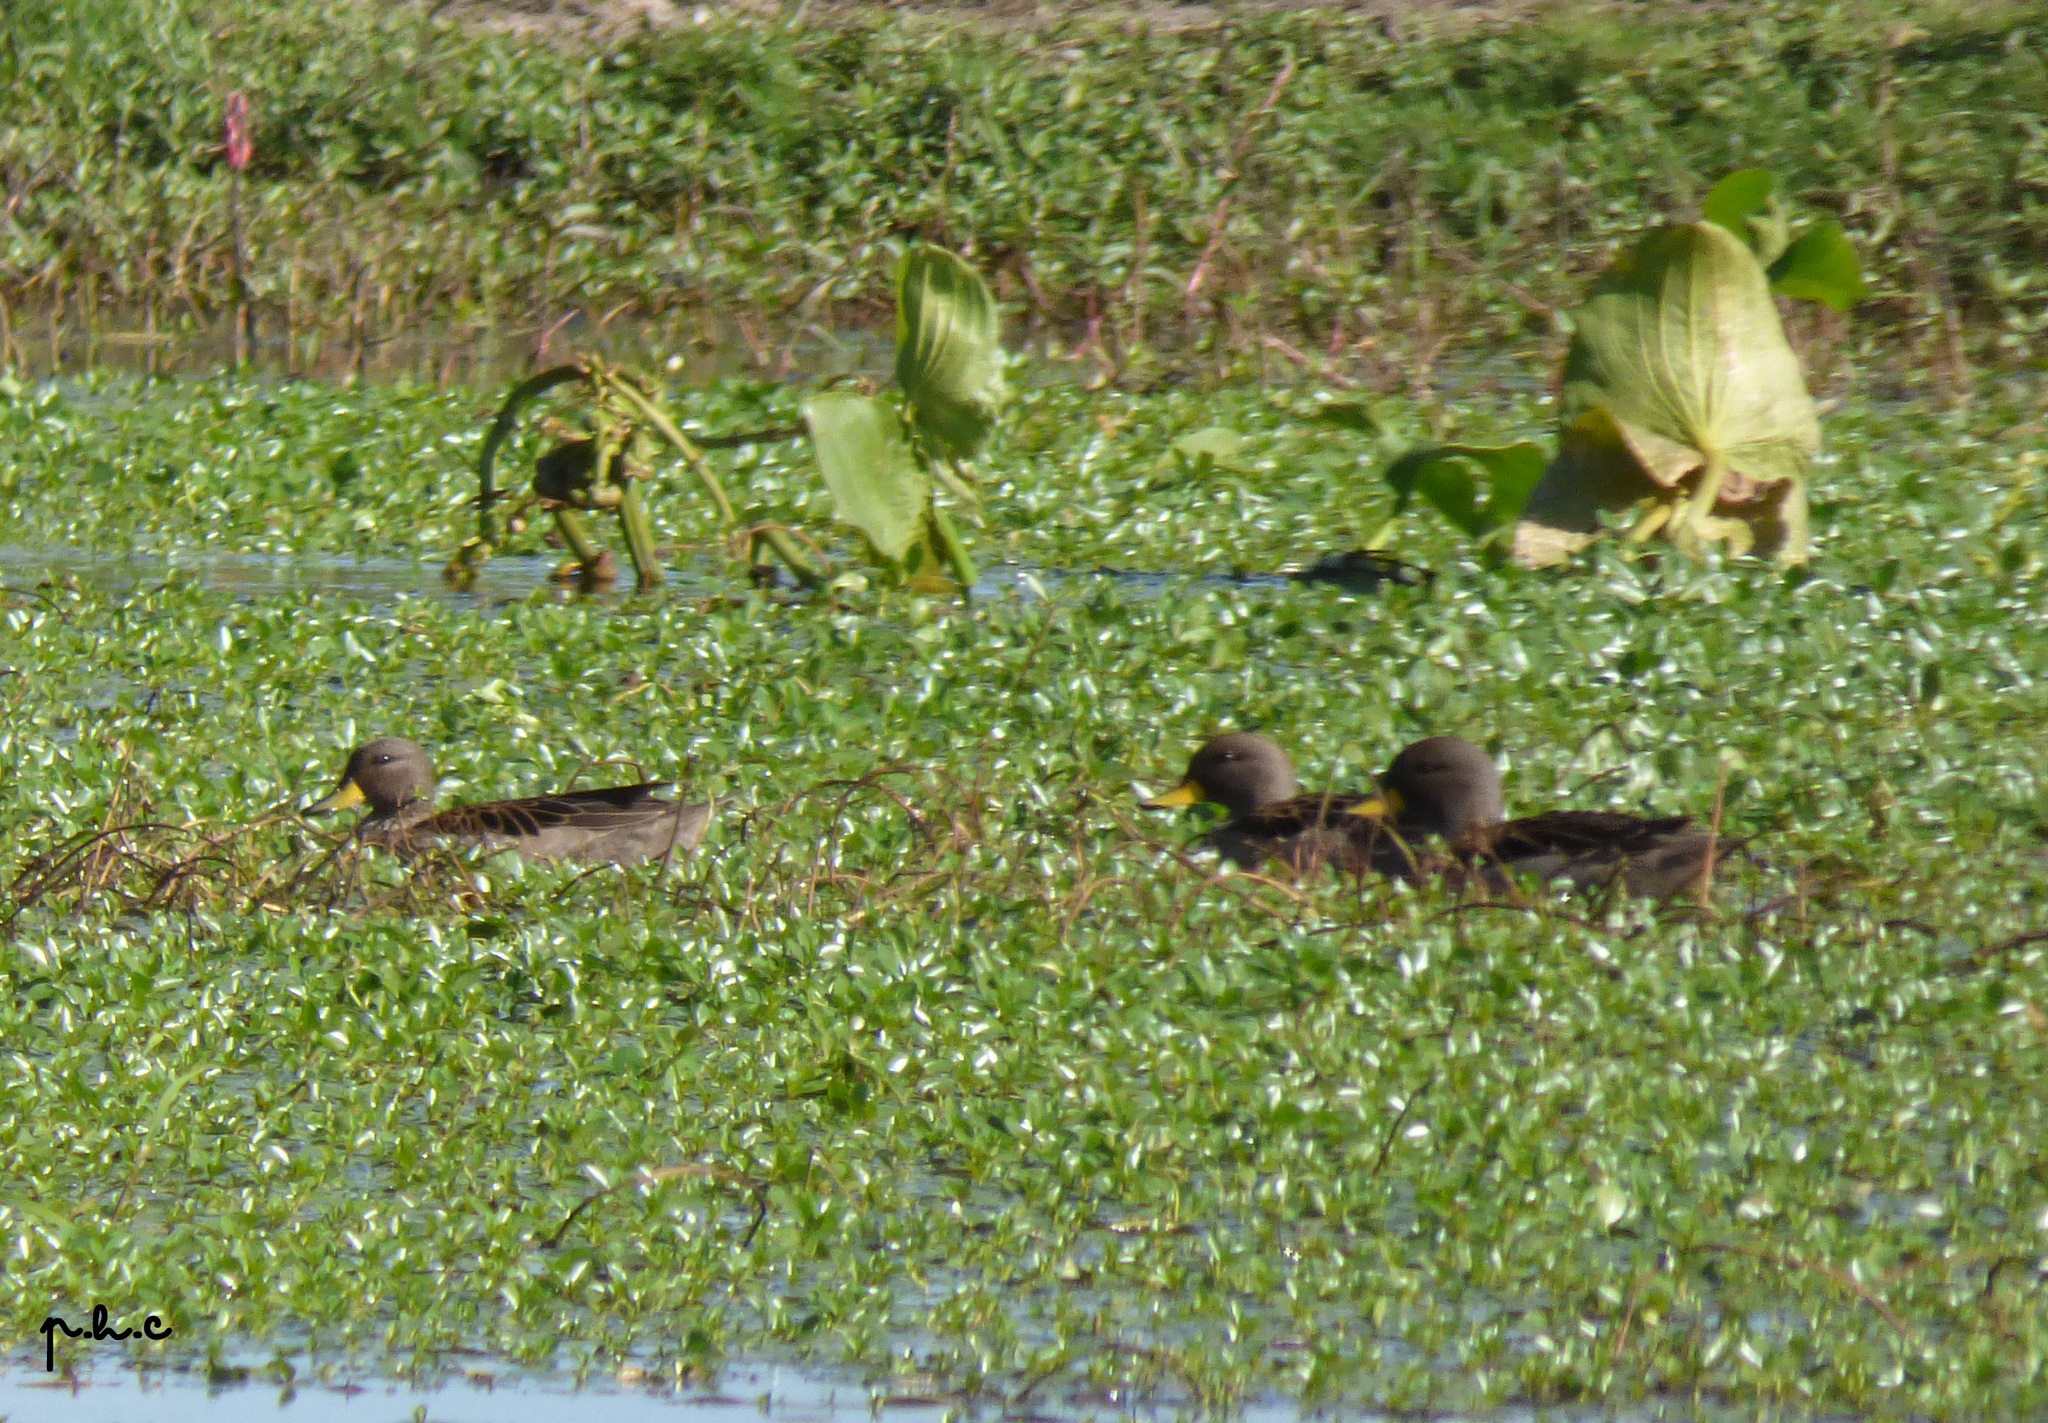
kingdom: Animalia
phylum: Chordata
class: Aves
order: Anseriformes
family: Anatidae
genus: Anas
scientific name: Anas flavirostris
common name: Yellow-billed teal
